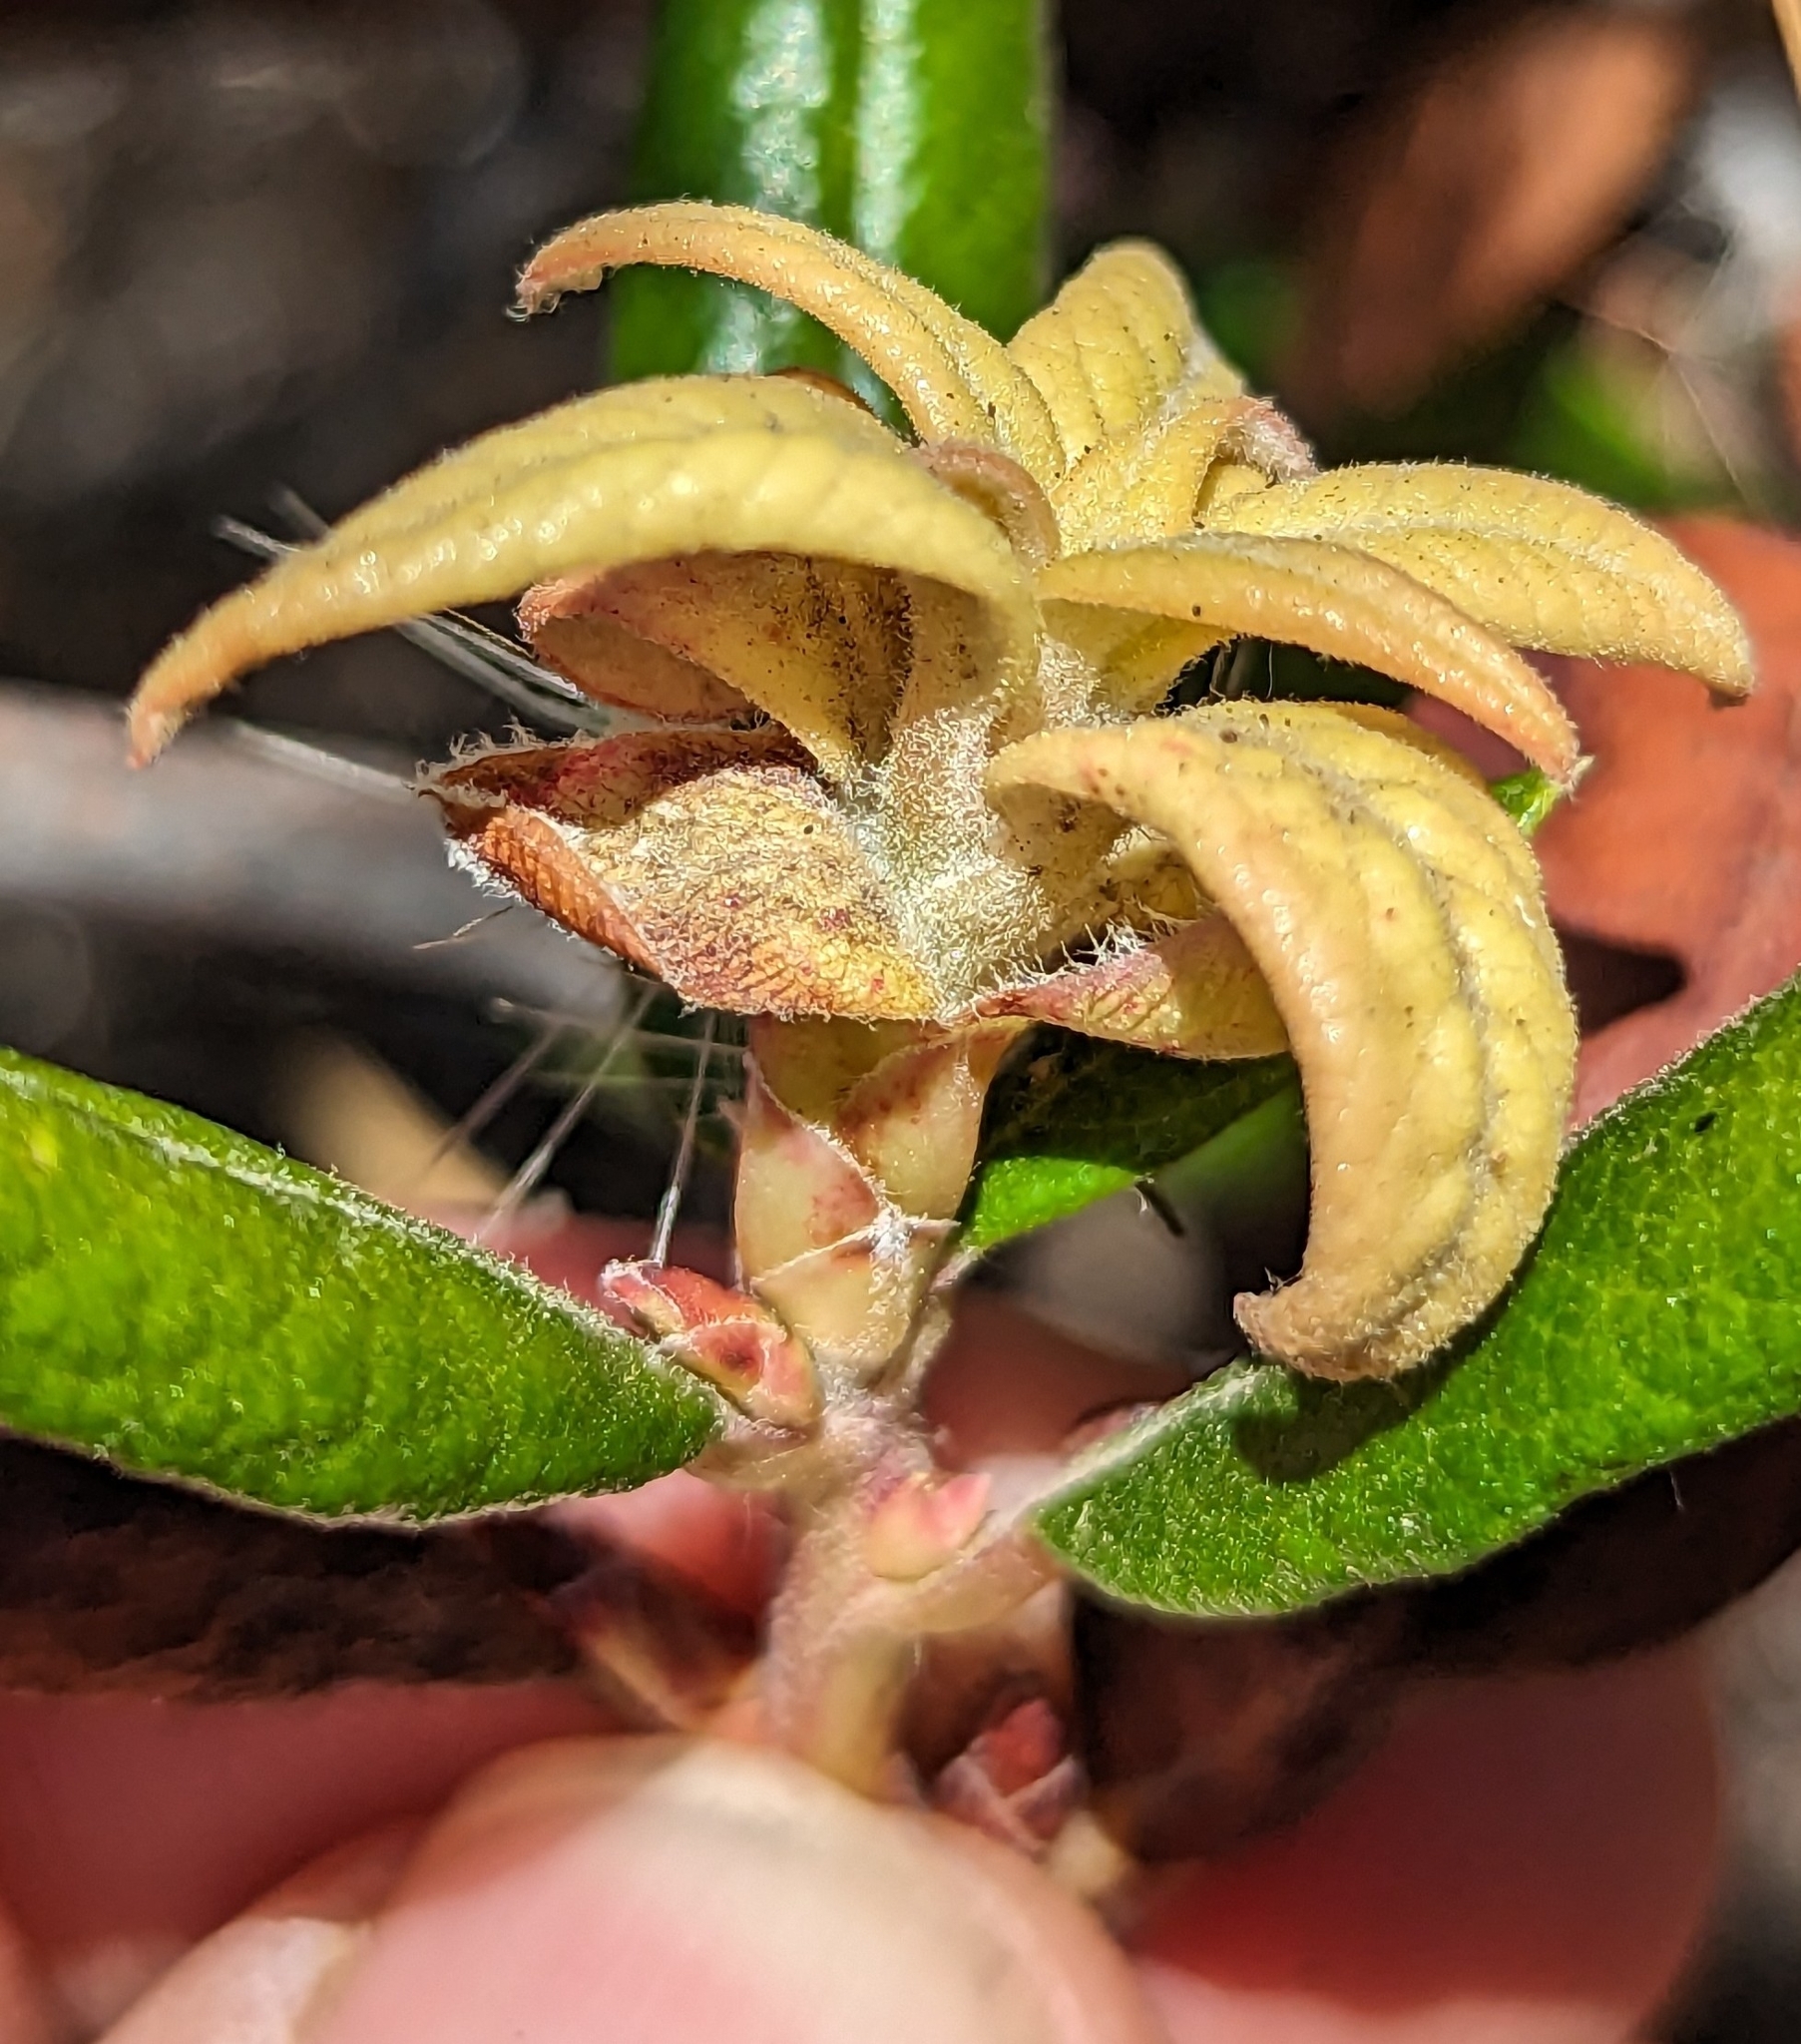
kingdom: Plantae
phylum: Tracheophyta
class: Magnoliopsida
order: Ericales
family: Ericaceae
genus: Arctostaphylos
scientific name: Arctostaphylos bicolor
